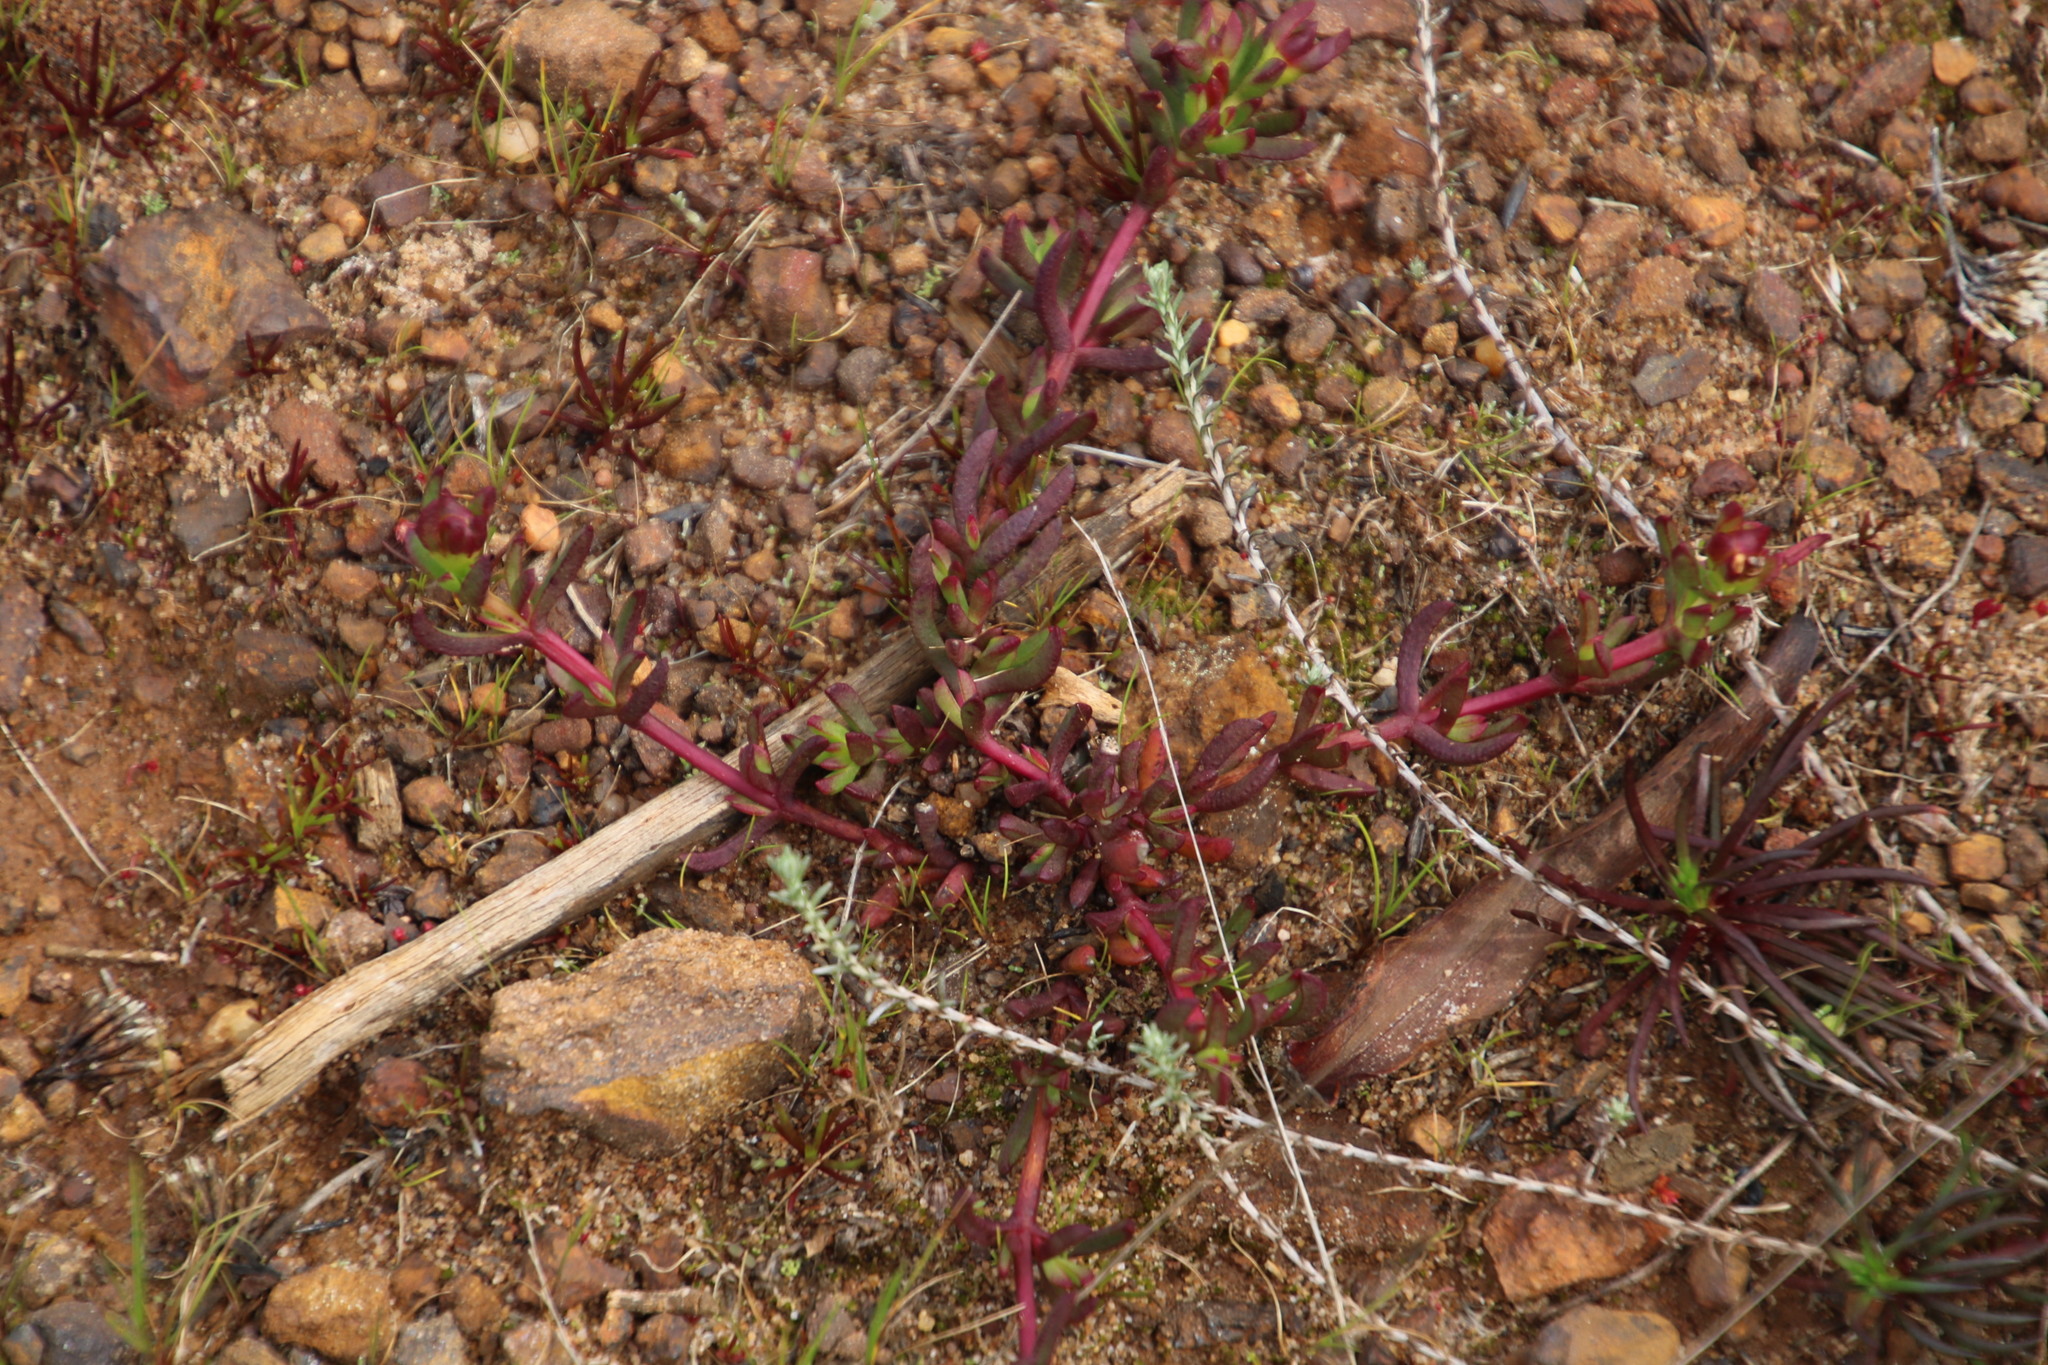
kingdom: Plantae
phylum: Tracheophyta
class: Magnoliopsida
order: Saxifragales
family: Haloragaceae
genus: Laurembergia
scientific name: Laurembergia repens
